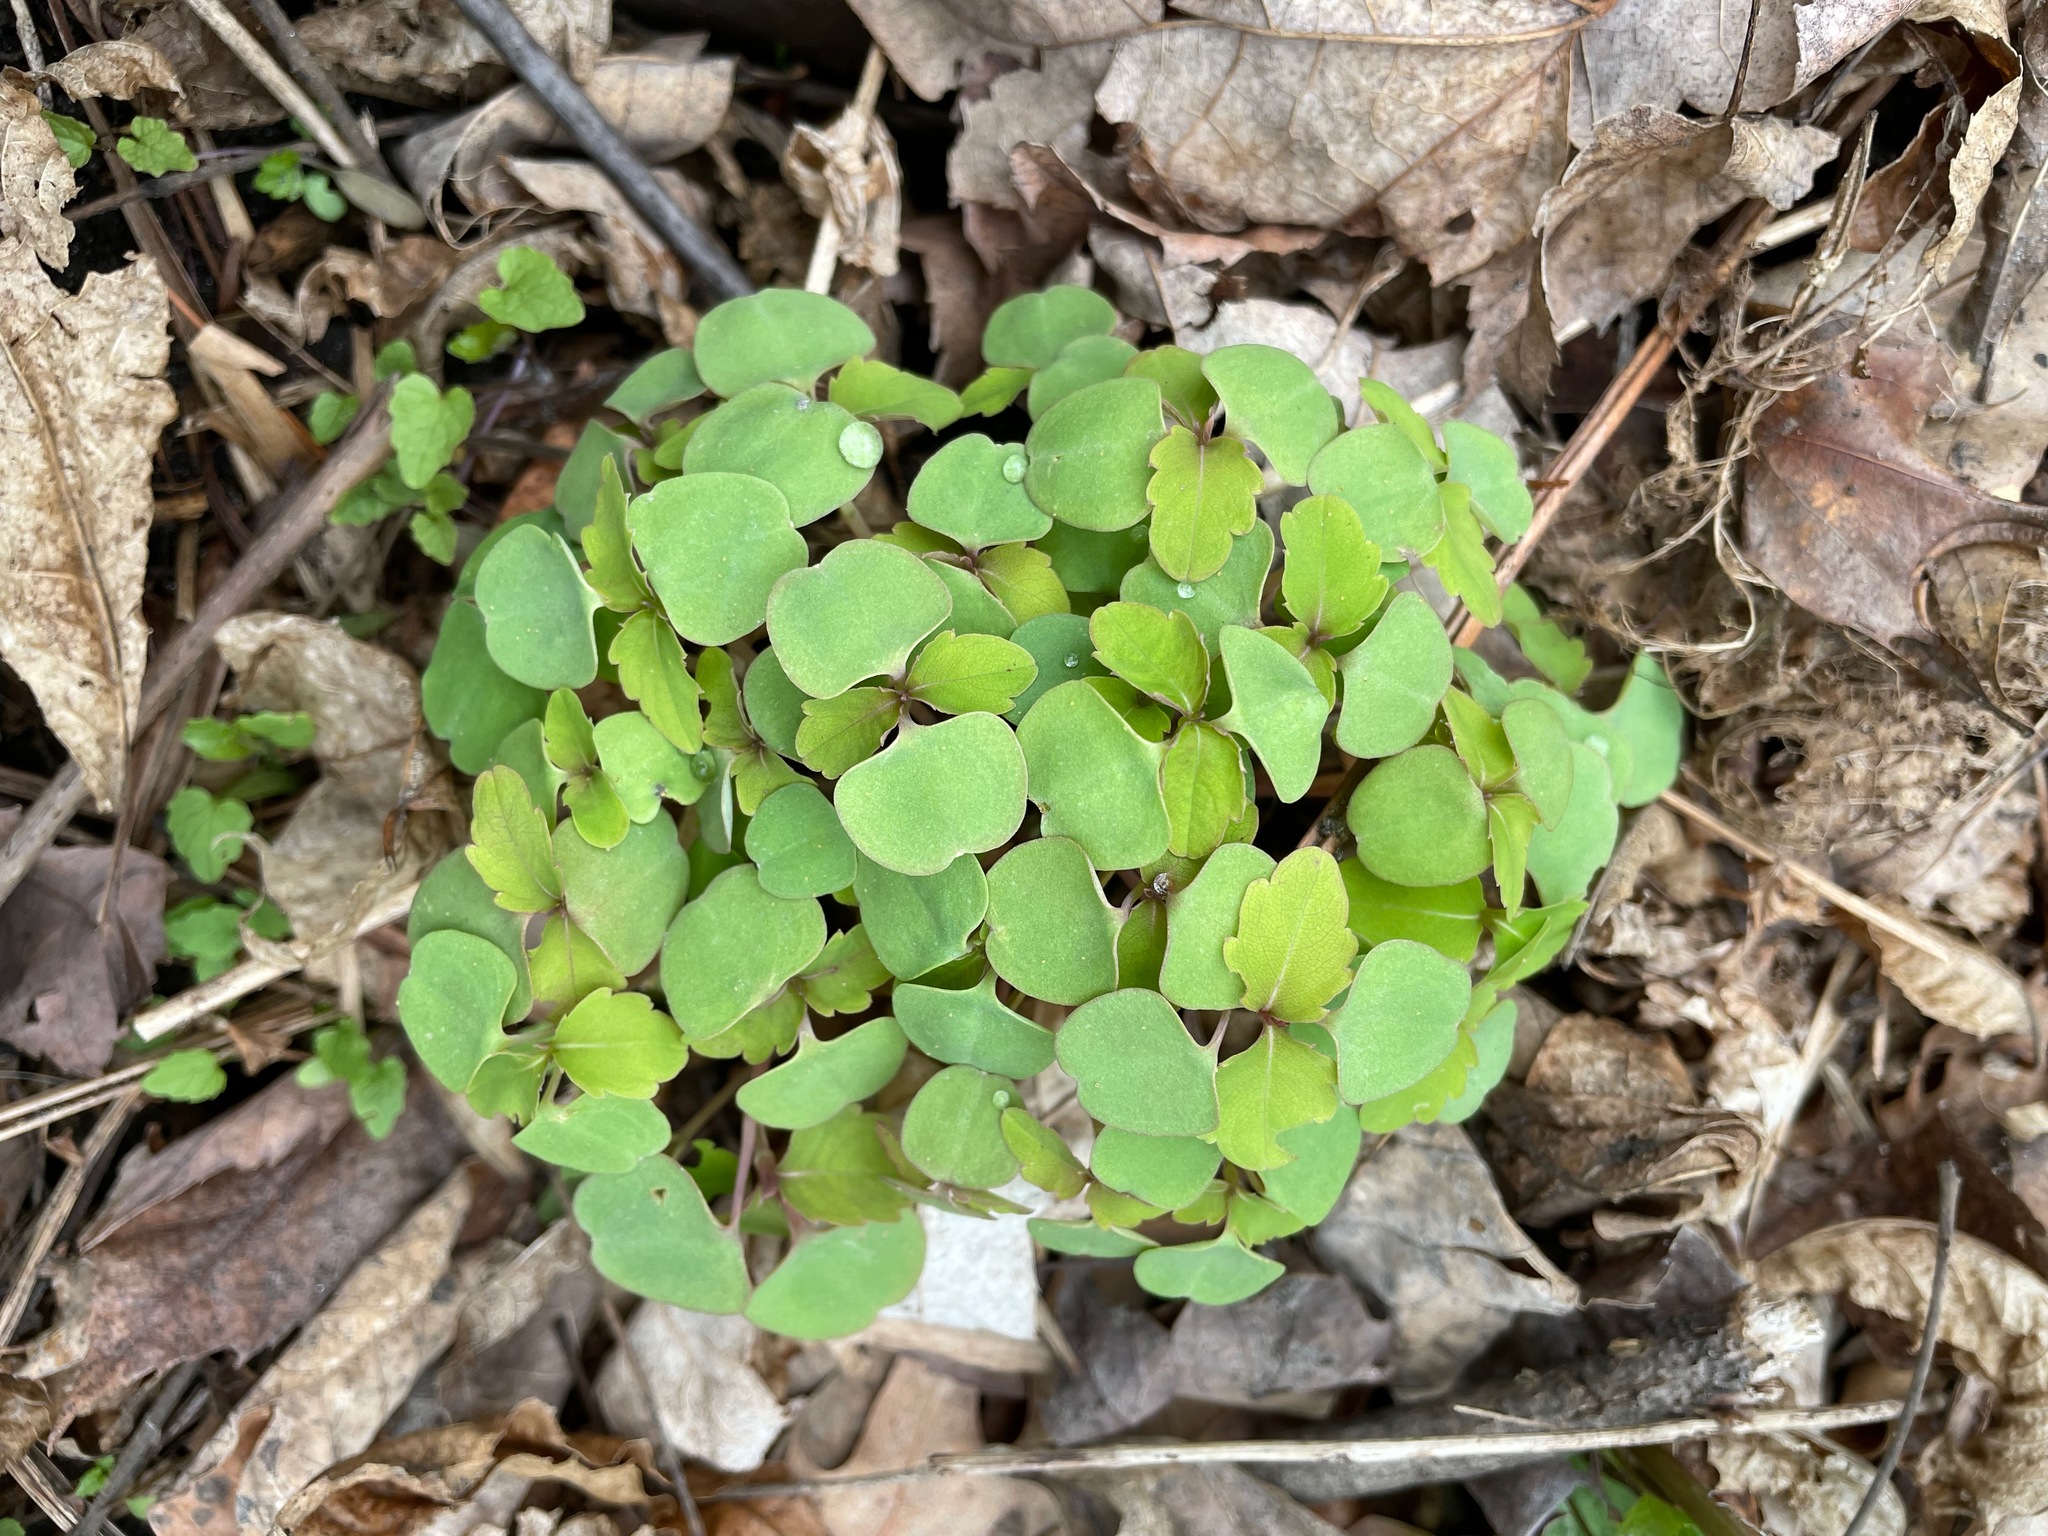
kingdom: Plantae
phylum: Tracheophyta
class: Magnoliopsida
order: Ericales
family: Balsaminaceae
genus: Impatiens
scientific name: Impatiens
